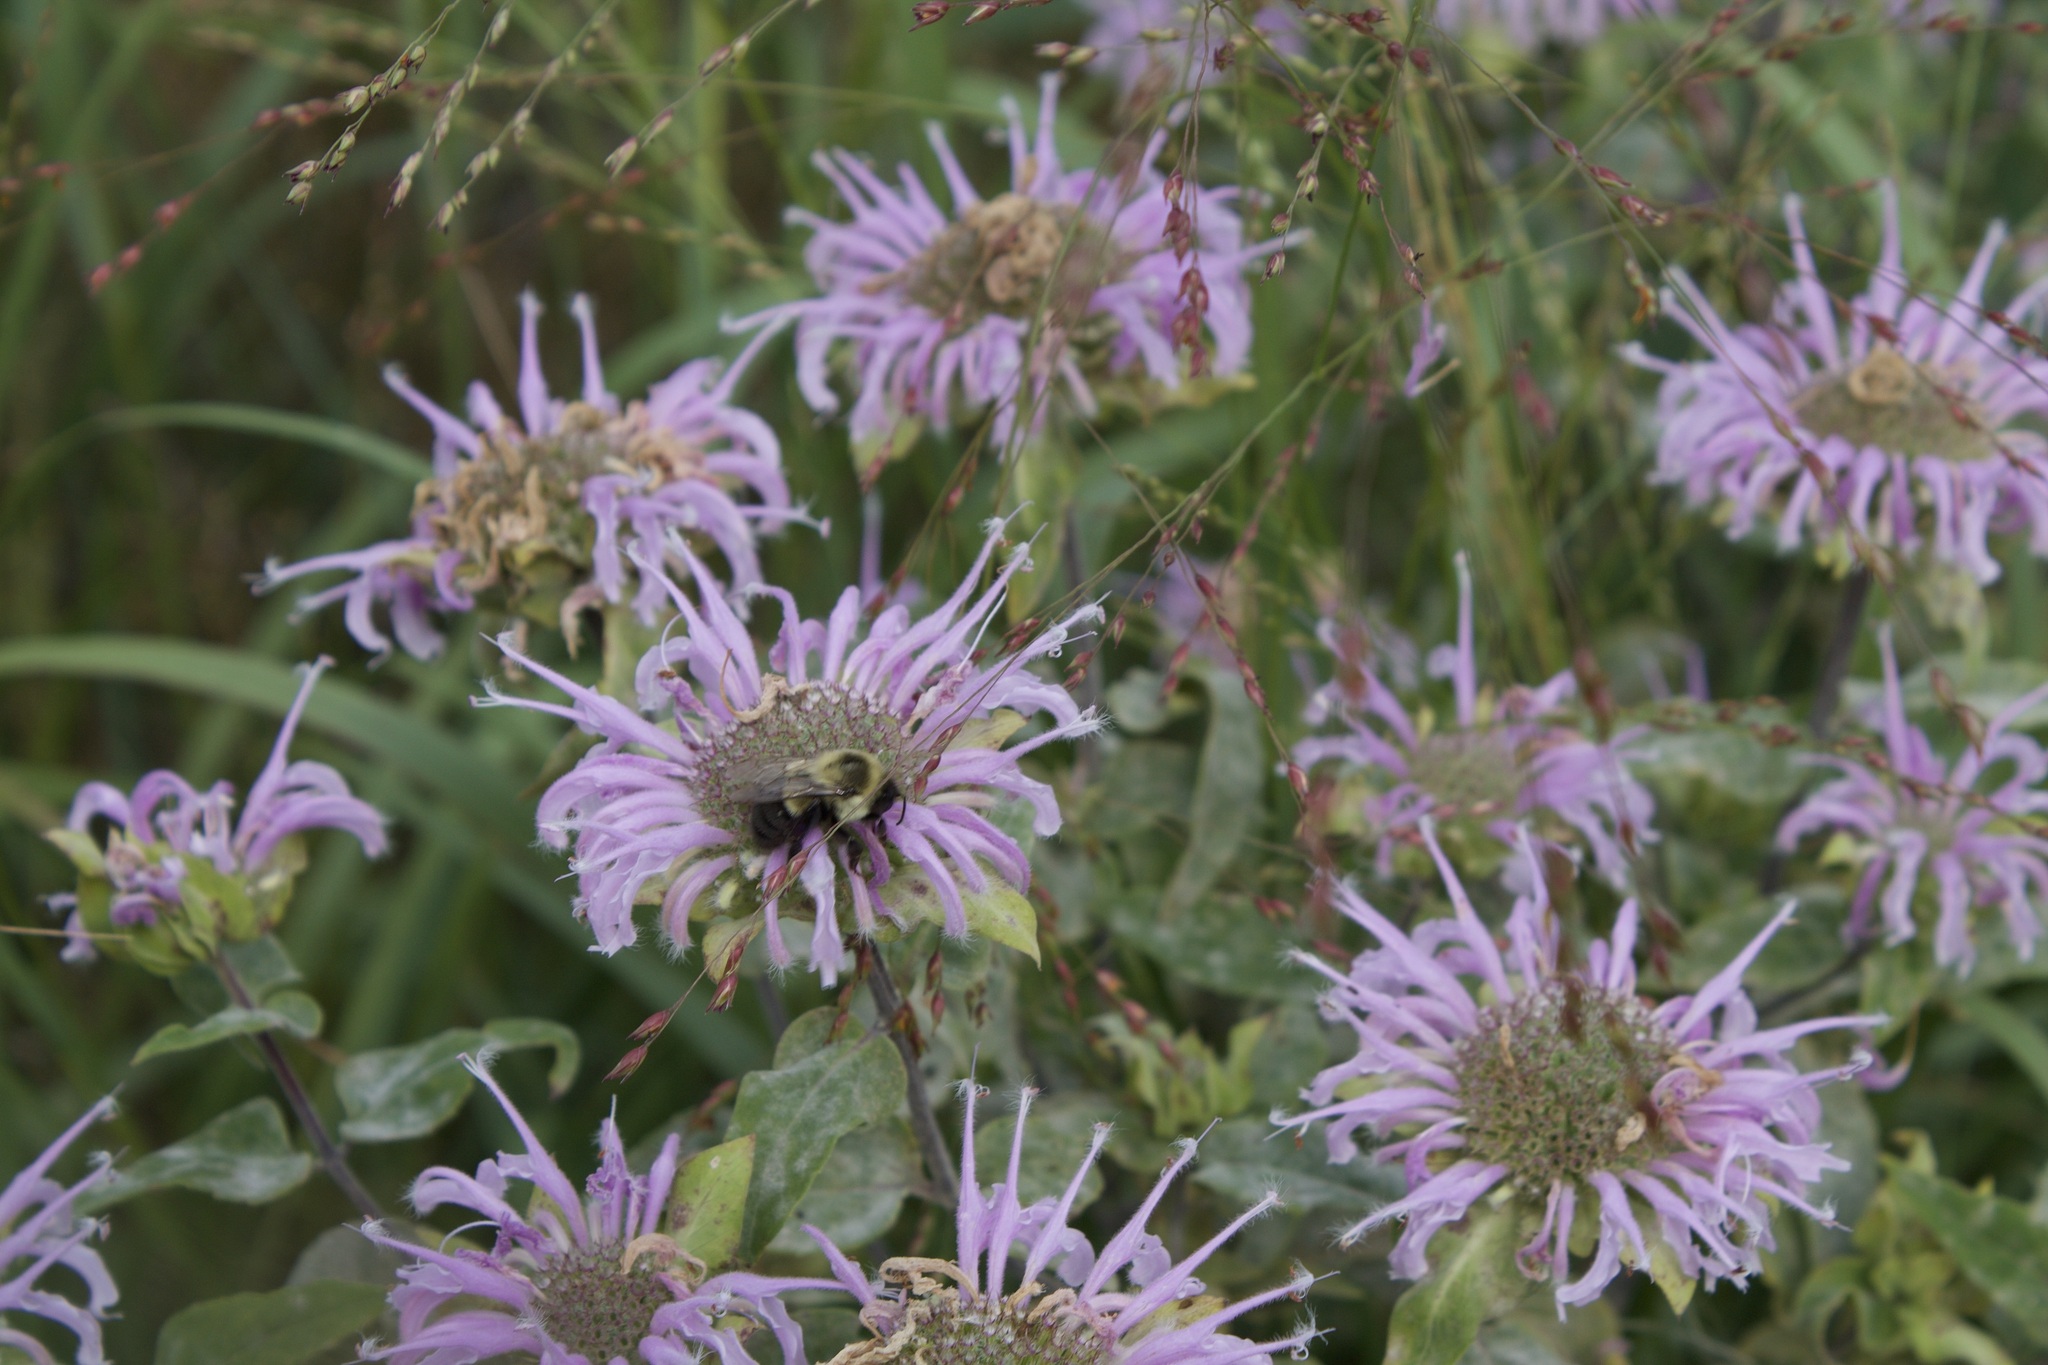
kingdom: Animalia
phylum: Arthropoda
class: Insecta
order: Hymenoptera
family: Apidae
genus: Bombus
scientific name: Bombus impatiens
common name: Common eastern bumble bee
